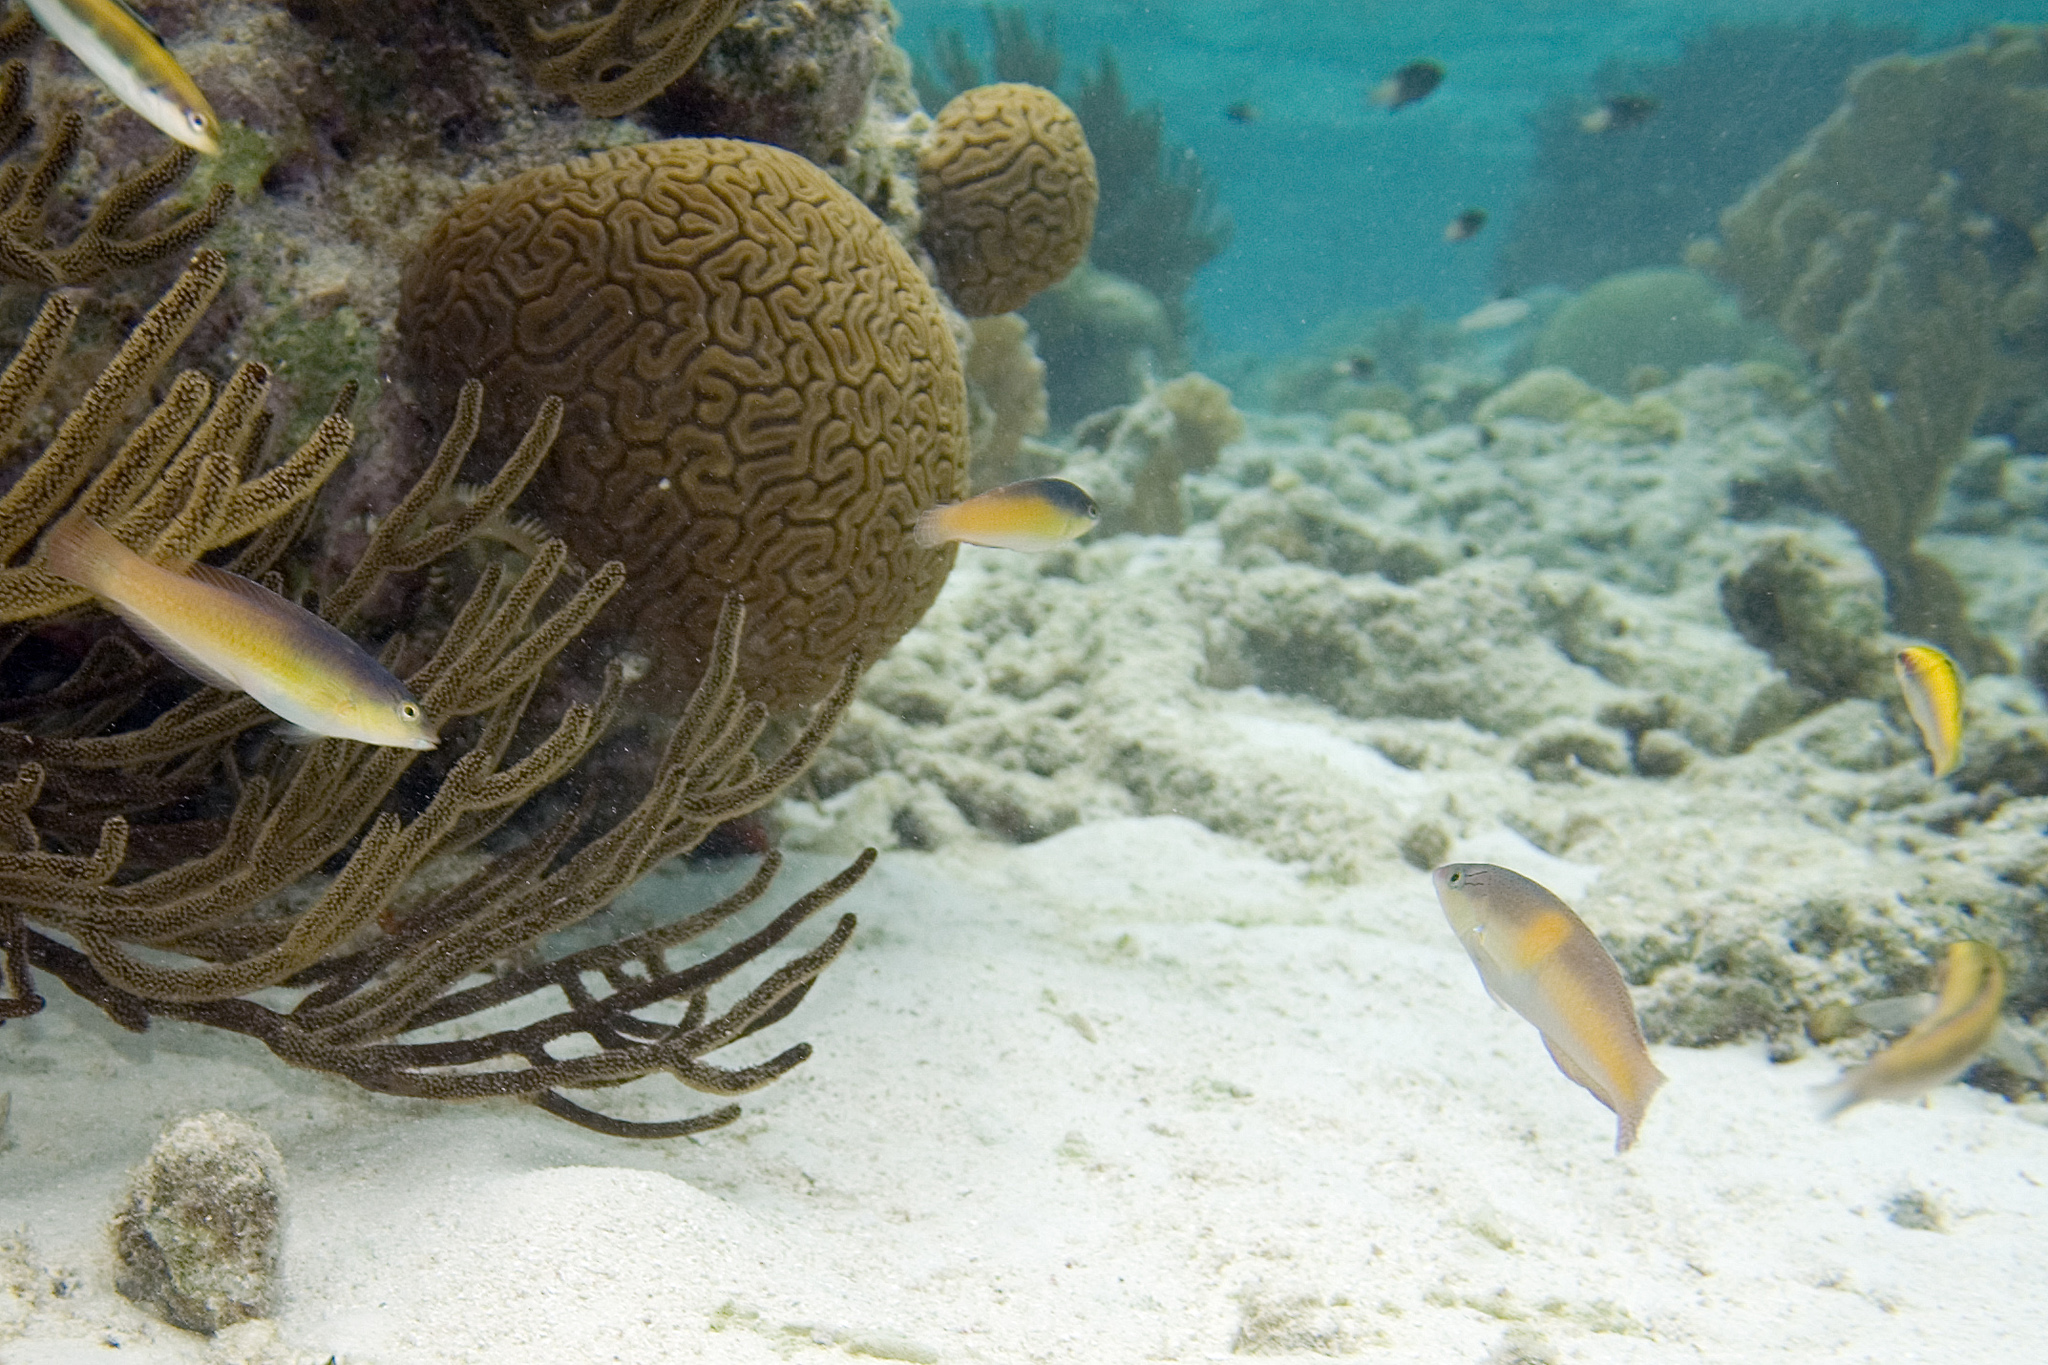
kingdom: Animalia
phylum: Cnidaria
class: Anthozoa
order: Scleractinia
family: Faviidae
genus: Diploria
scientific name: Diploria labyrinthiformis
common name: Grooved brain coral
